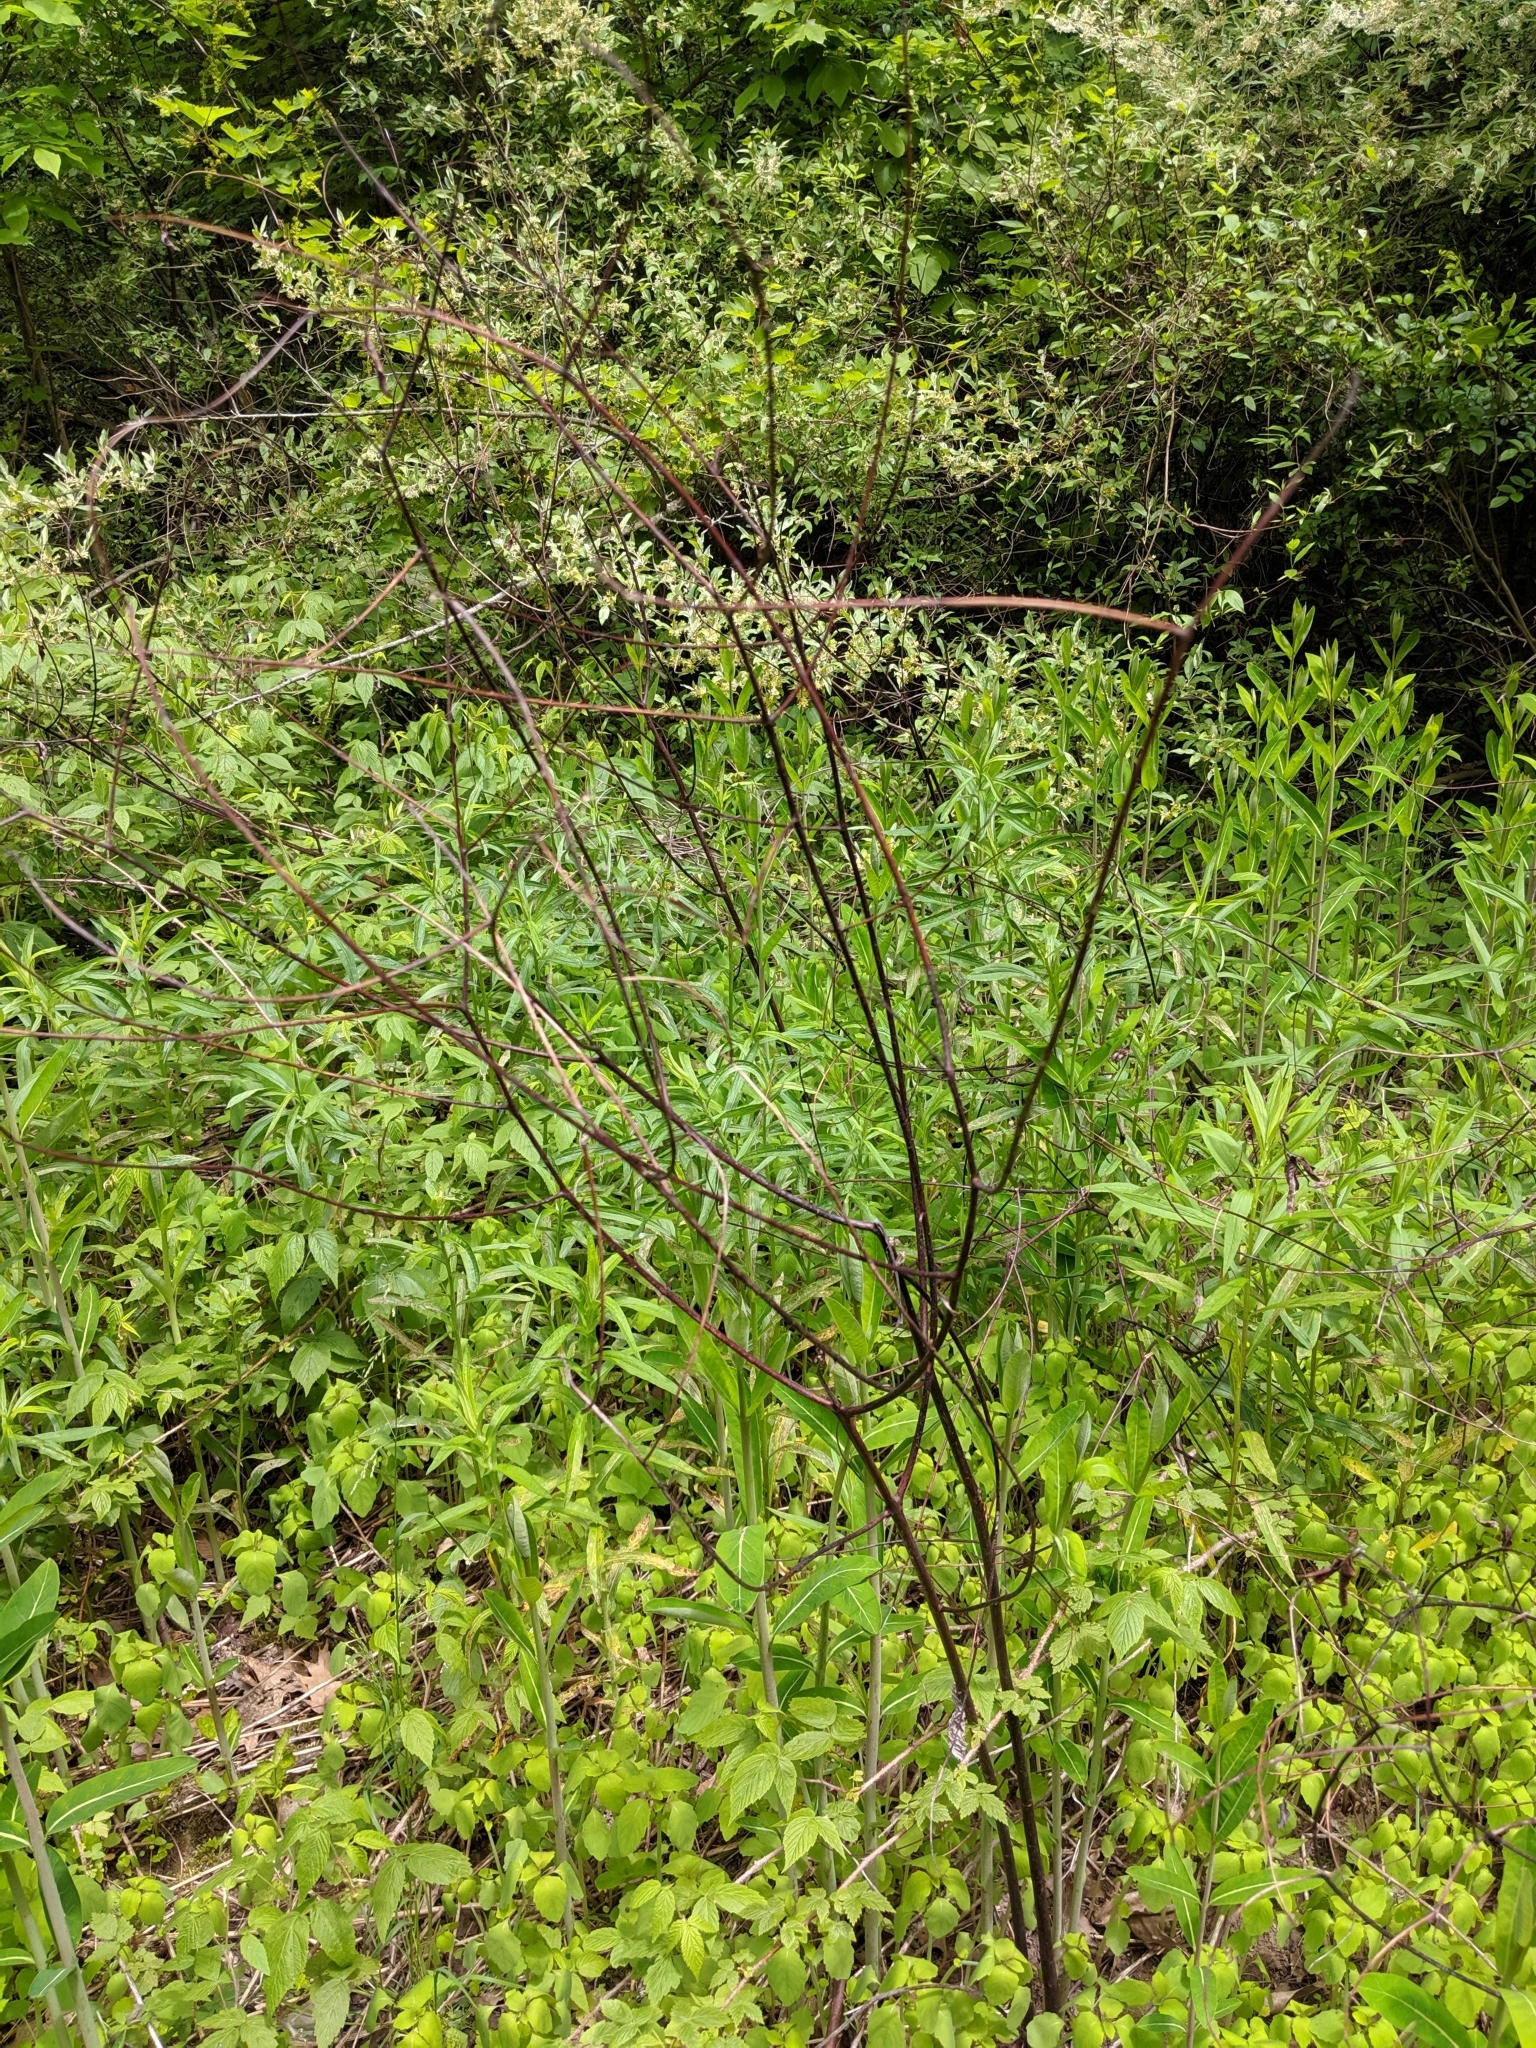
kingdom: Plantae
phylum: Tracheophyta
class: Magnoliopsida
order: Gentianales
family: Apocynaceae
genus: Apocynum
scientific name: Apocynum cannabinum
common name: Hemp dogbane
